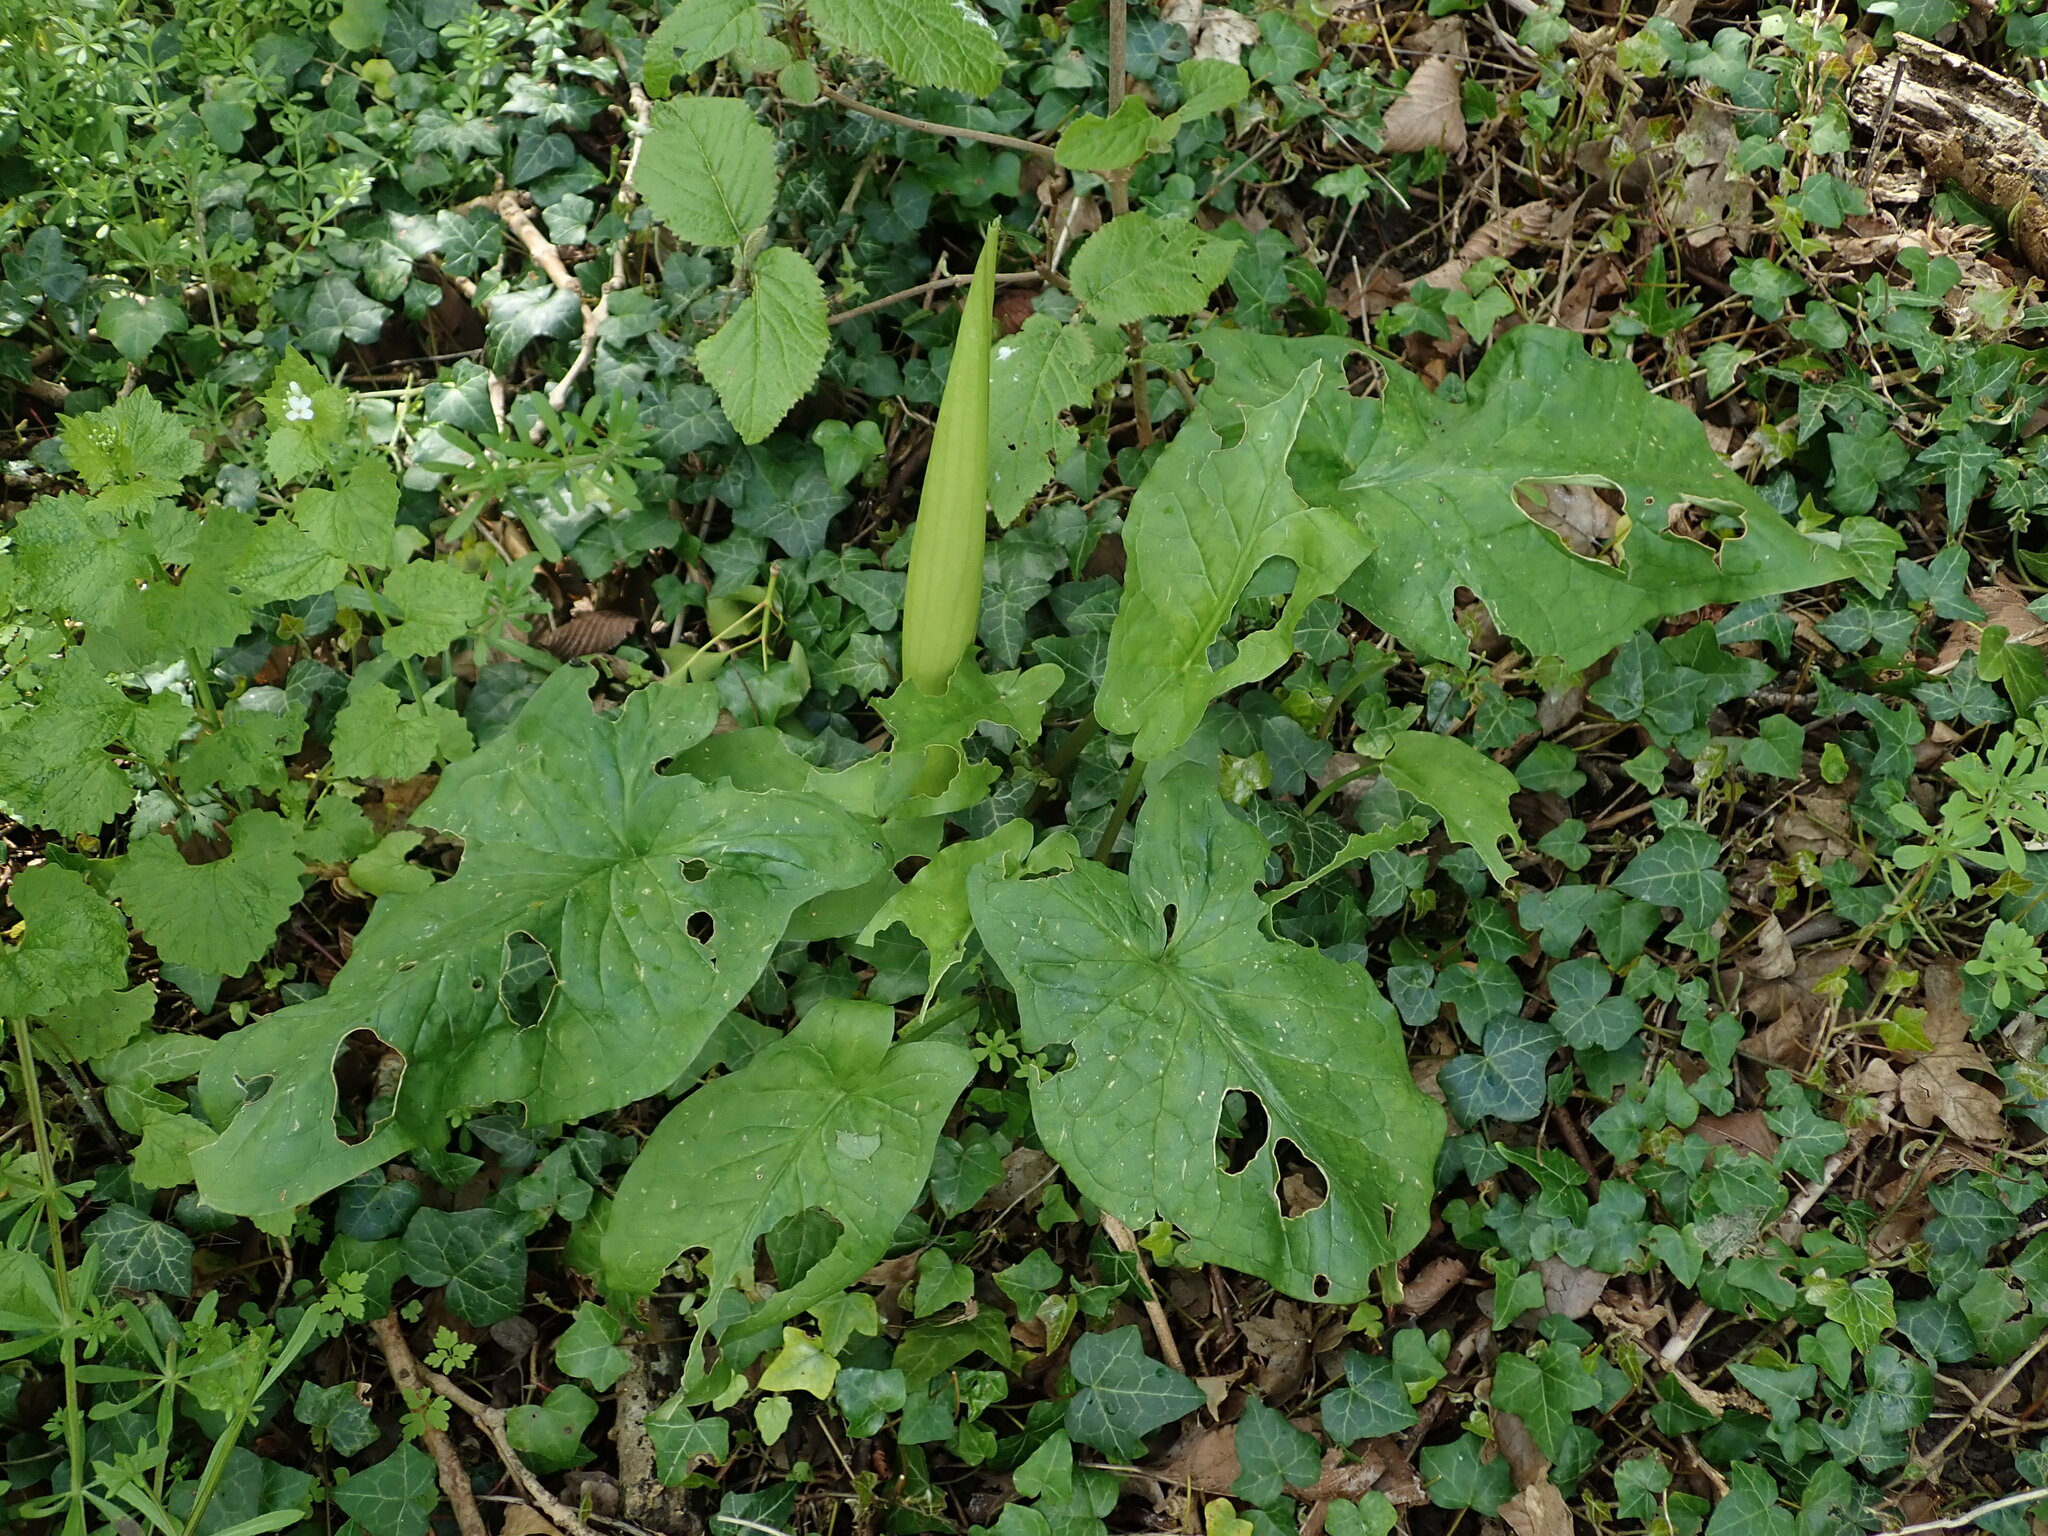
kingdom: Plantae
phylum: Tracheophyta
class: Liliopsida
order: Alismatales
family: Araceae
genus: Arum
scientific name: Arum maculatum
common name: Lords-and-ladies
